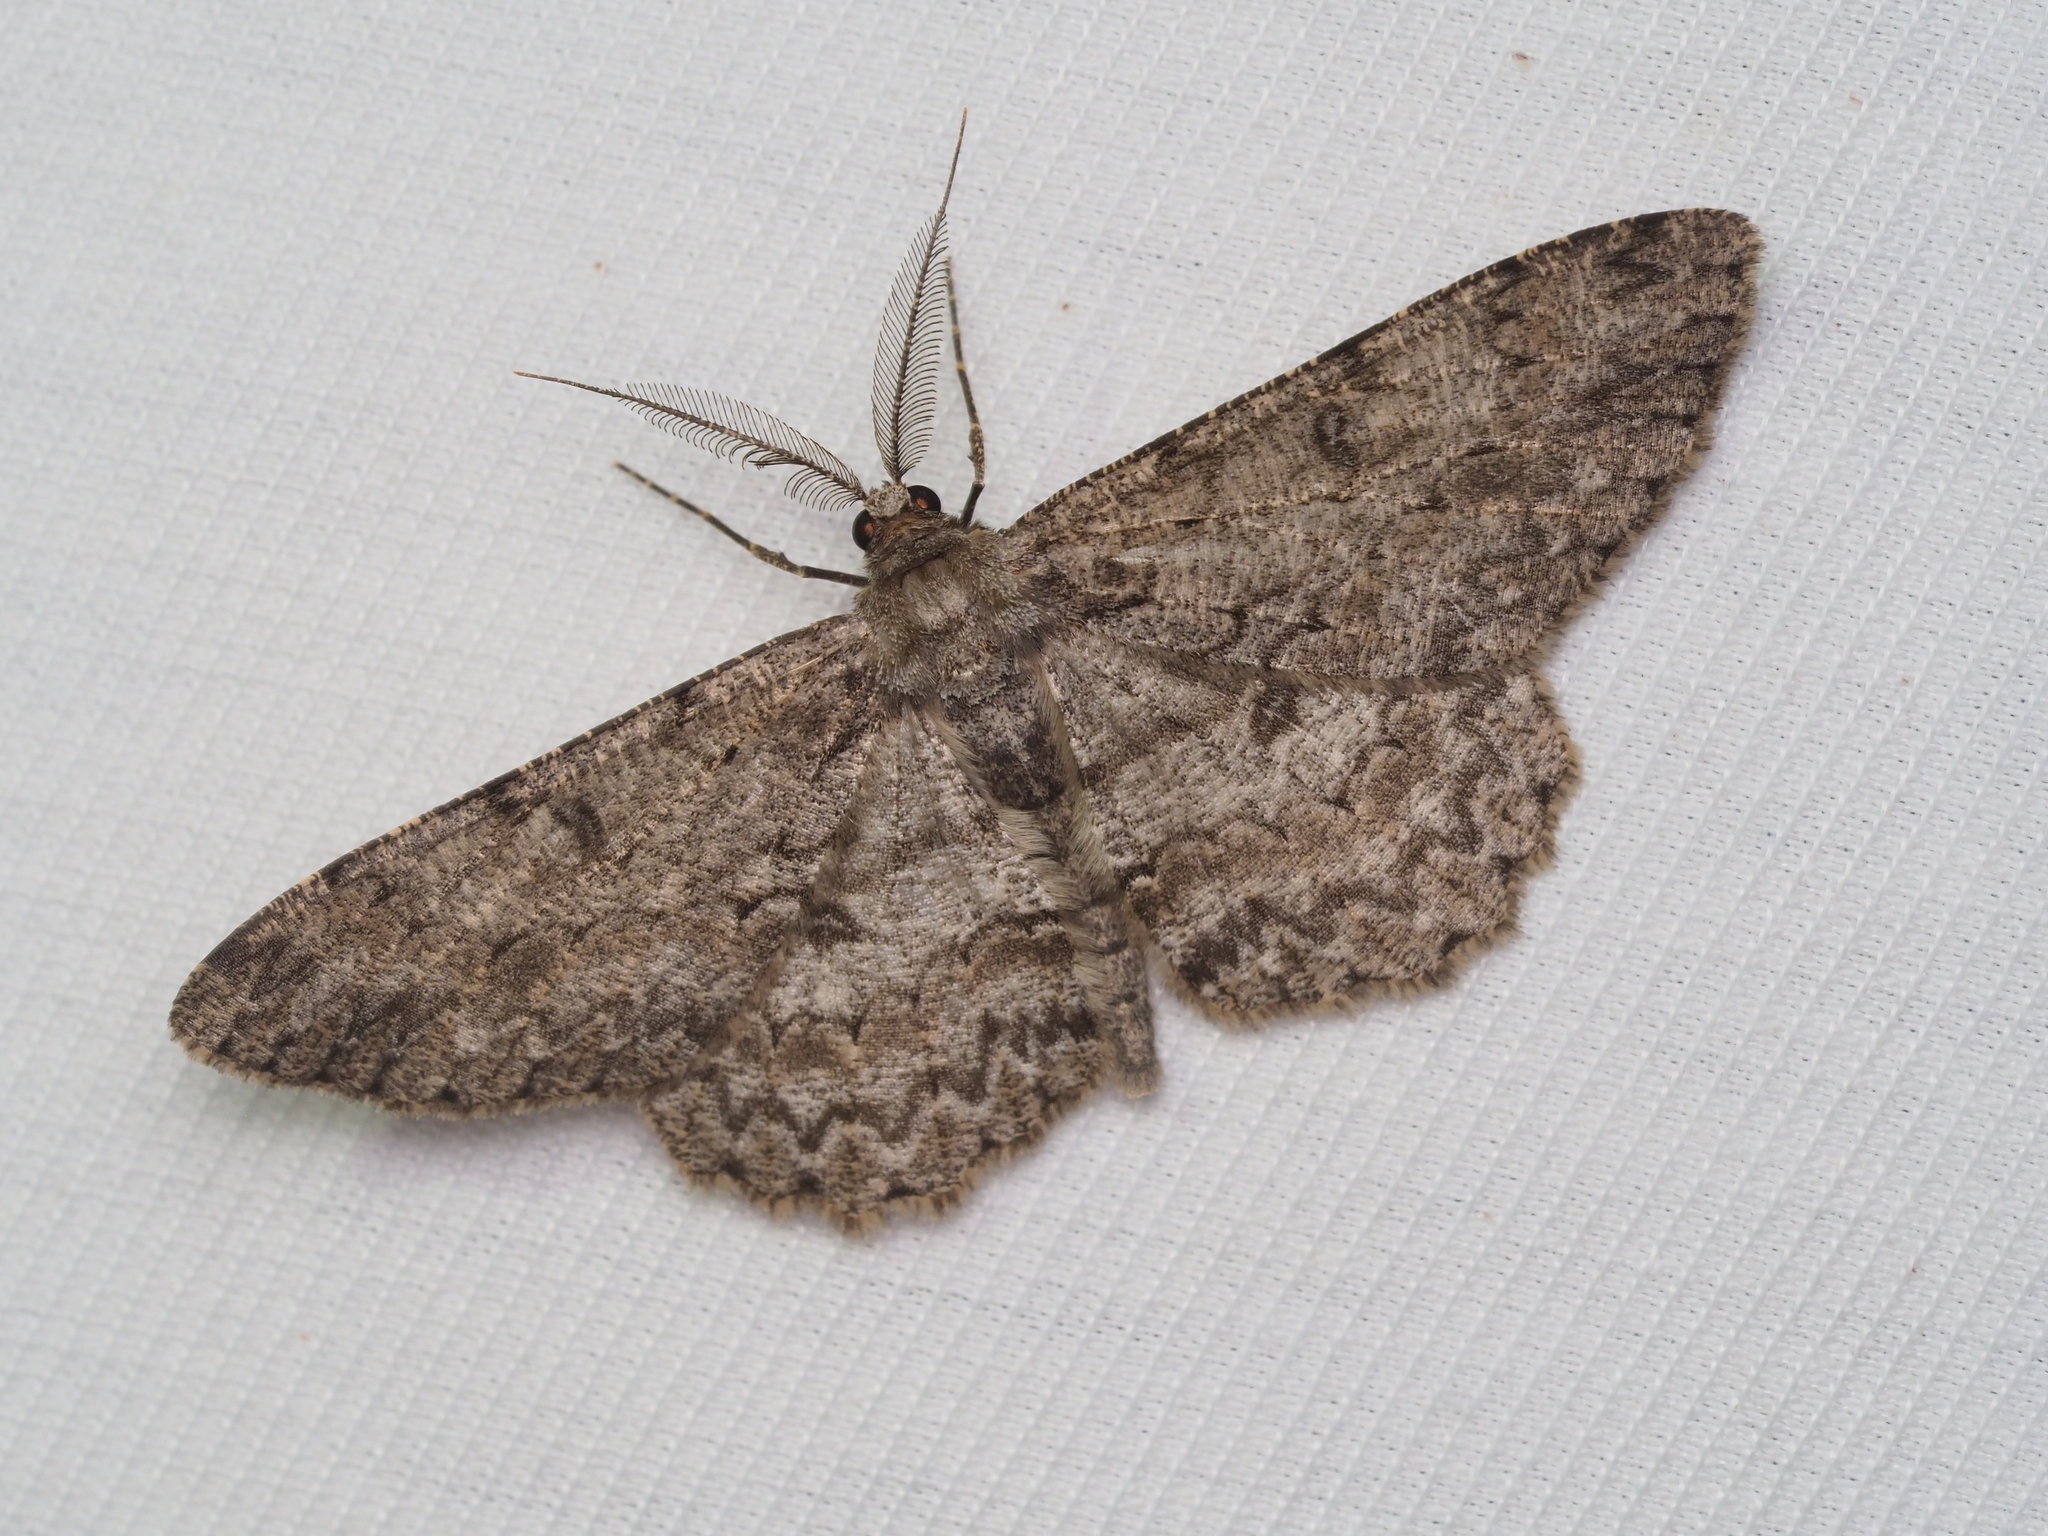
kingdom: Animalia
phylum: Arthropoda
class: Insecta
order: Lepidoptera
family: Geometridae
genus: Hypomecis
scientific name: Hypomecis punctinalis
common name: Pale oak beauty
